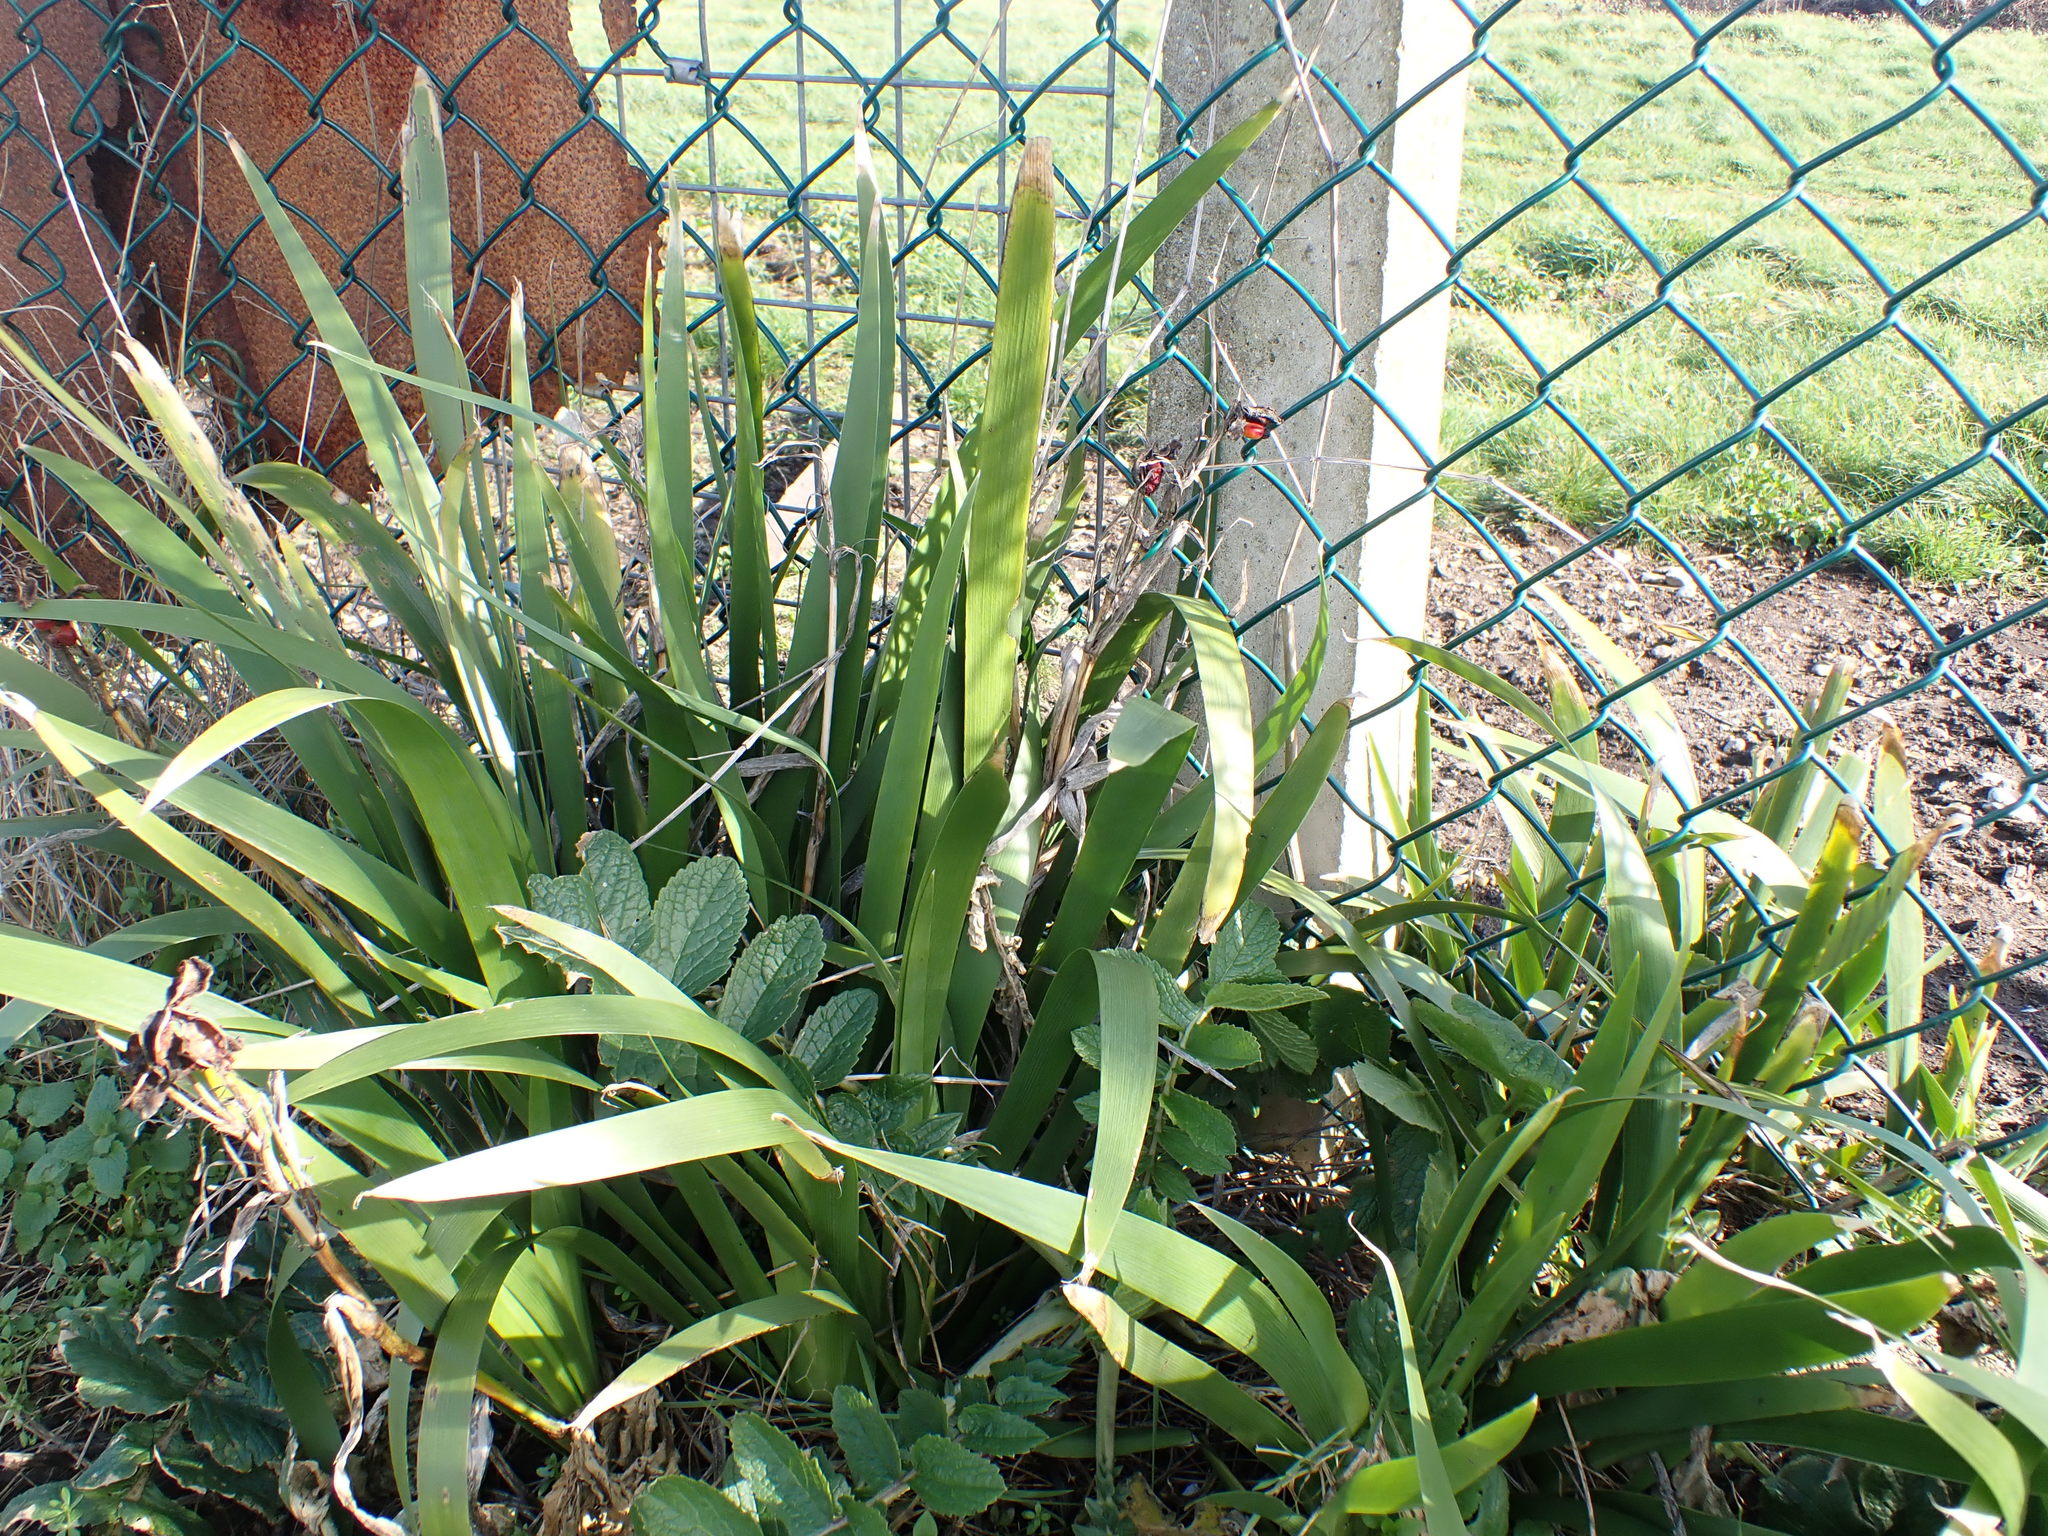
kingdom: Plantae
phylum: Tracheophyta
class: Liliopsida
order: Asparagales
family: Iridaceae
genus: Iris
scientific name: Iris foetidissima
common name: Stinking iris
